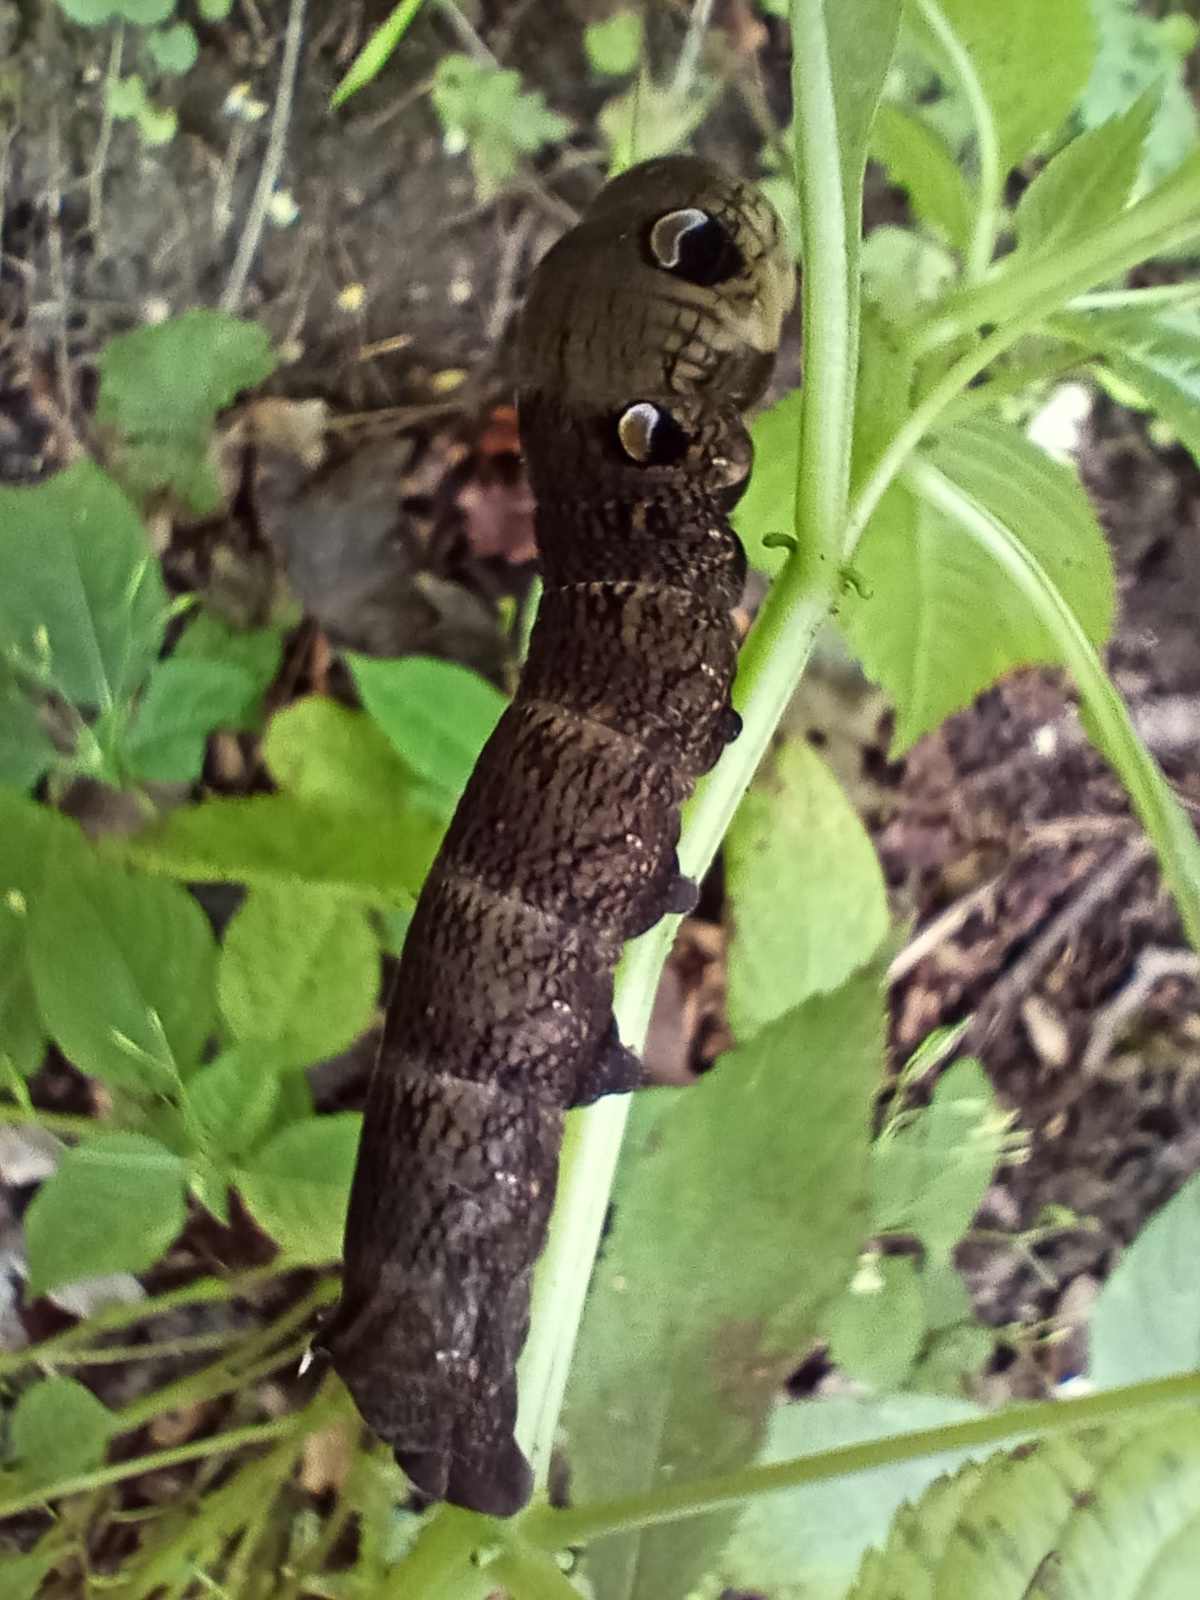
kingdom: Animalia
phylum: Arthropoda
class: Insecta
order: Lepidoptera
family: Sphingidae
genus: Deilephila
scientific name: Deilephila elpenor
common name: Elephant hawk-moth
